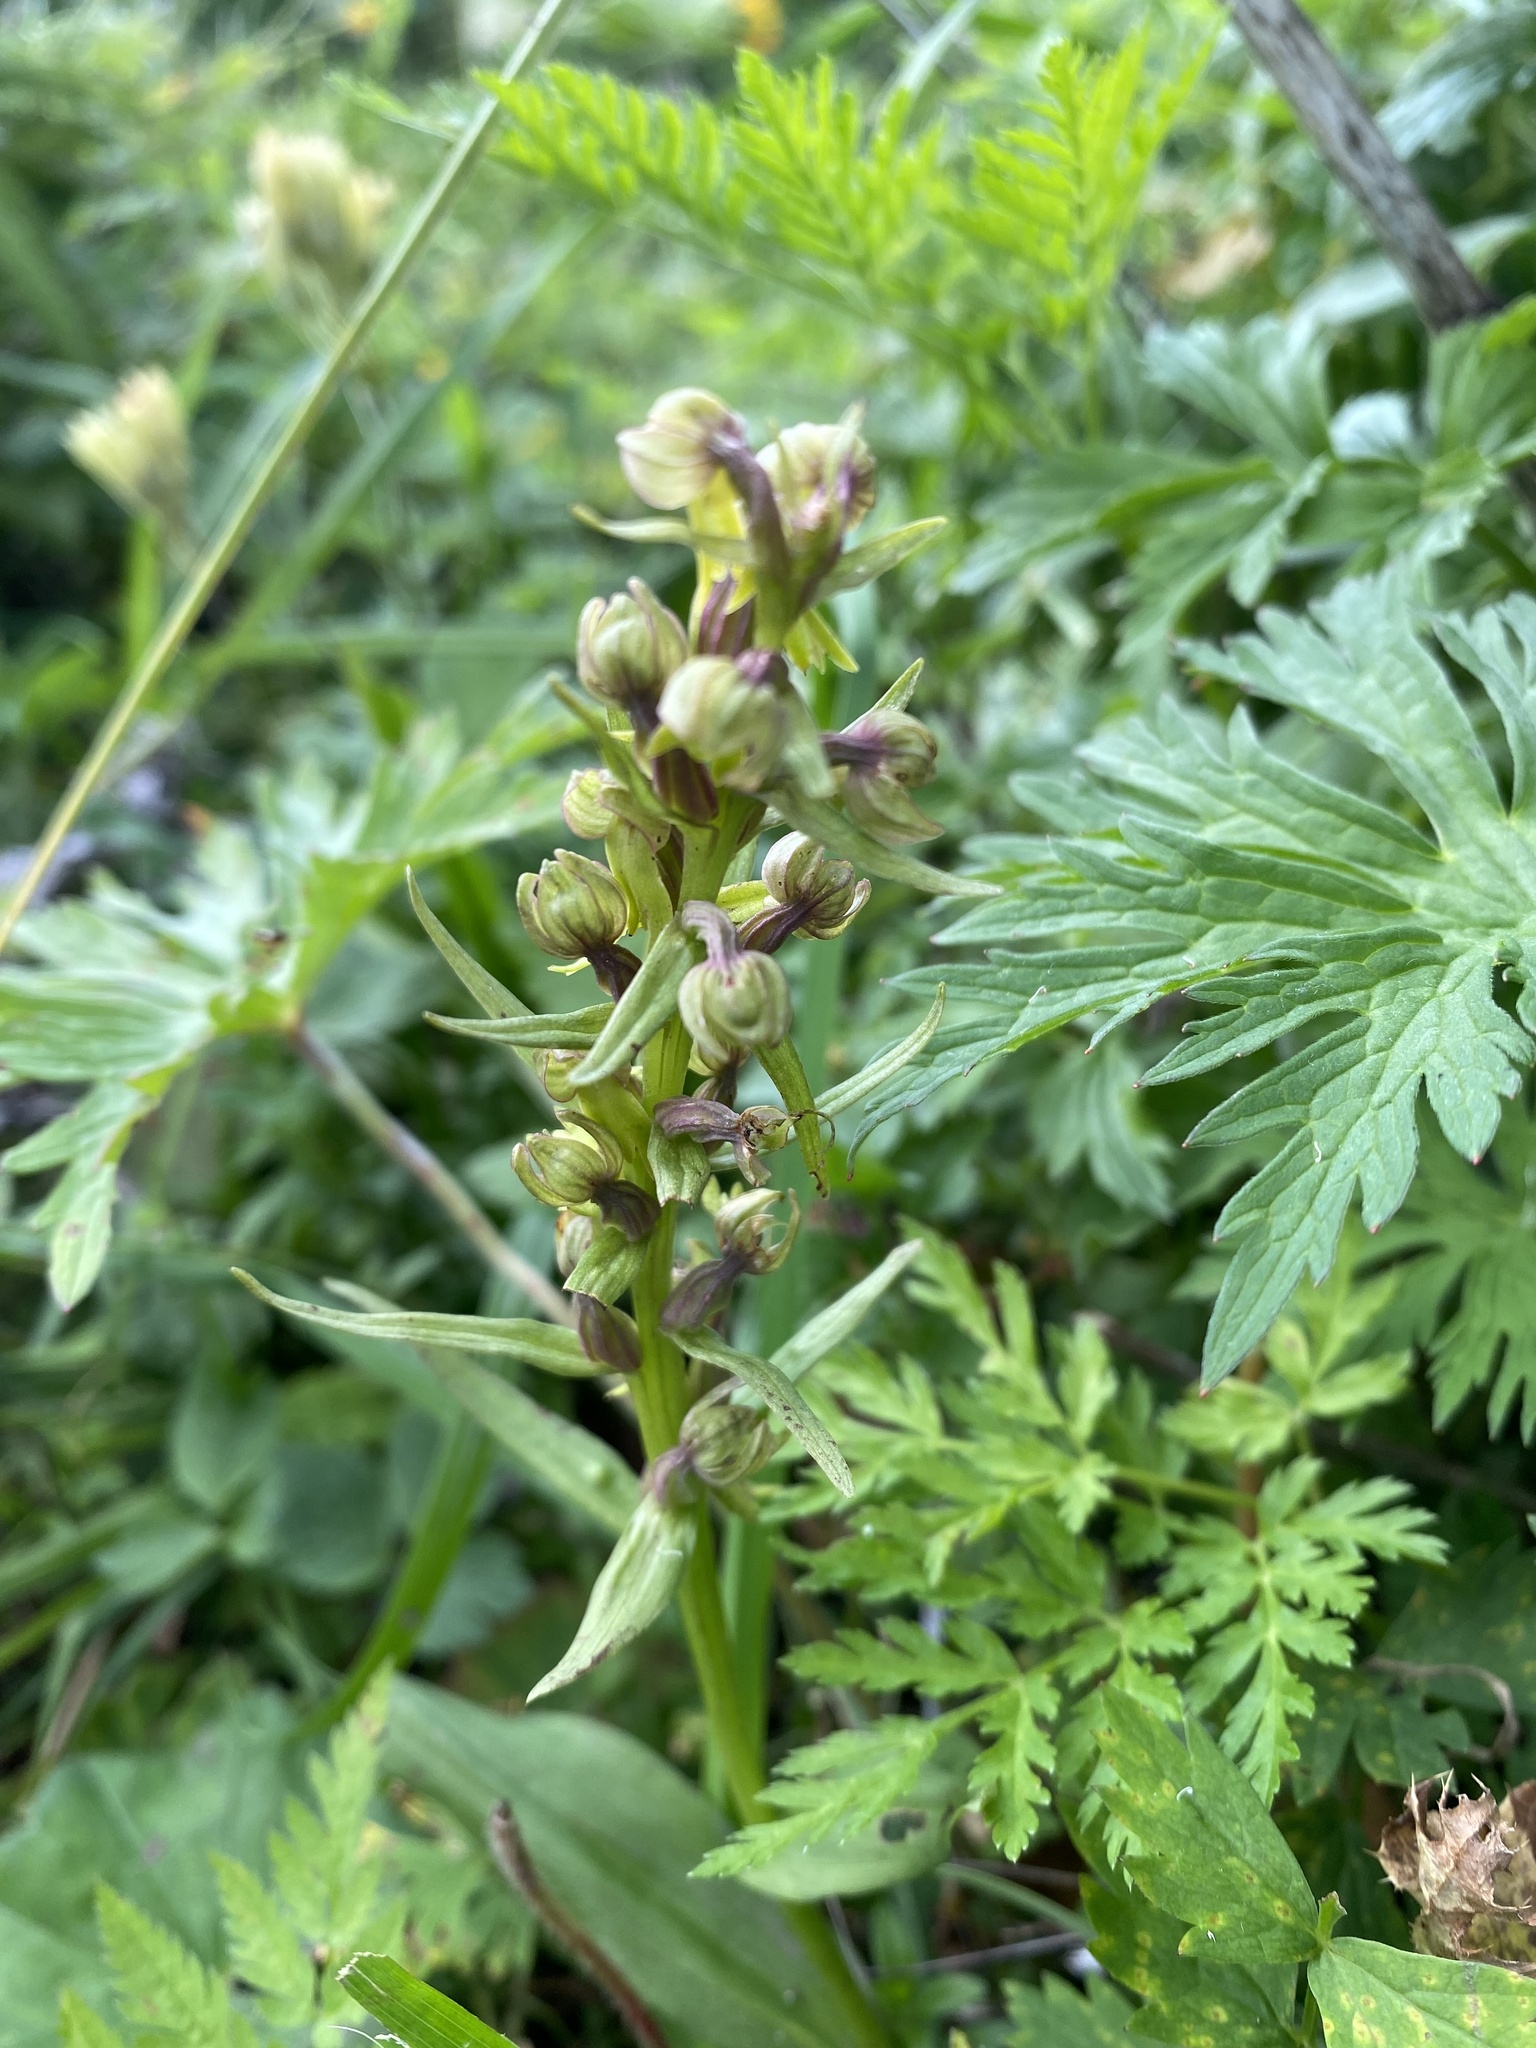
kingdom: Plantae
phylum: Tracheophyta
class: Liliopsida
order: Asparagales
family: Orchidaceae
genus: Dactylorhiza
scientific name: Dactylorhiza viridis
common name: Longbract frog orchid
